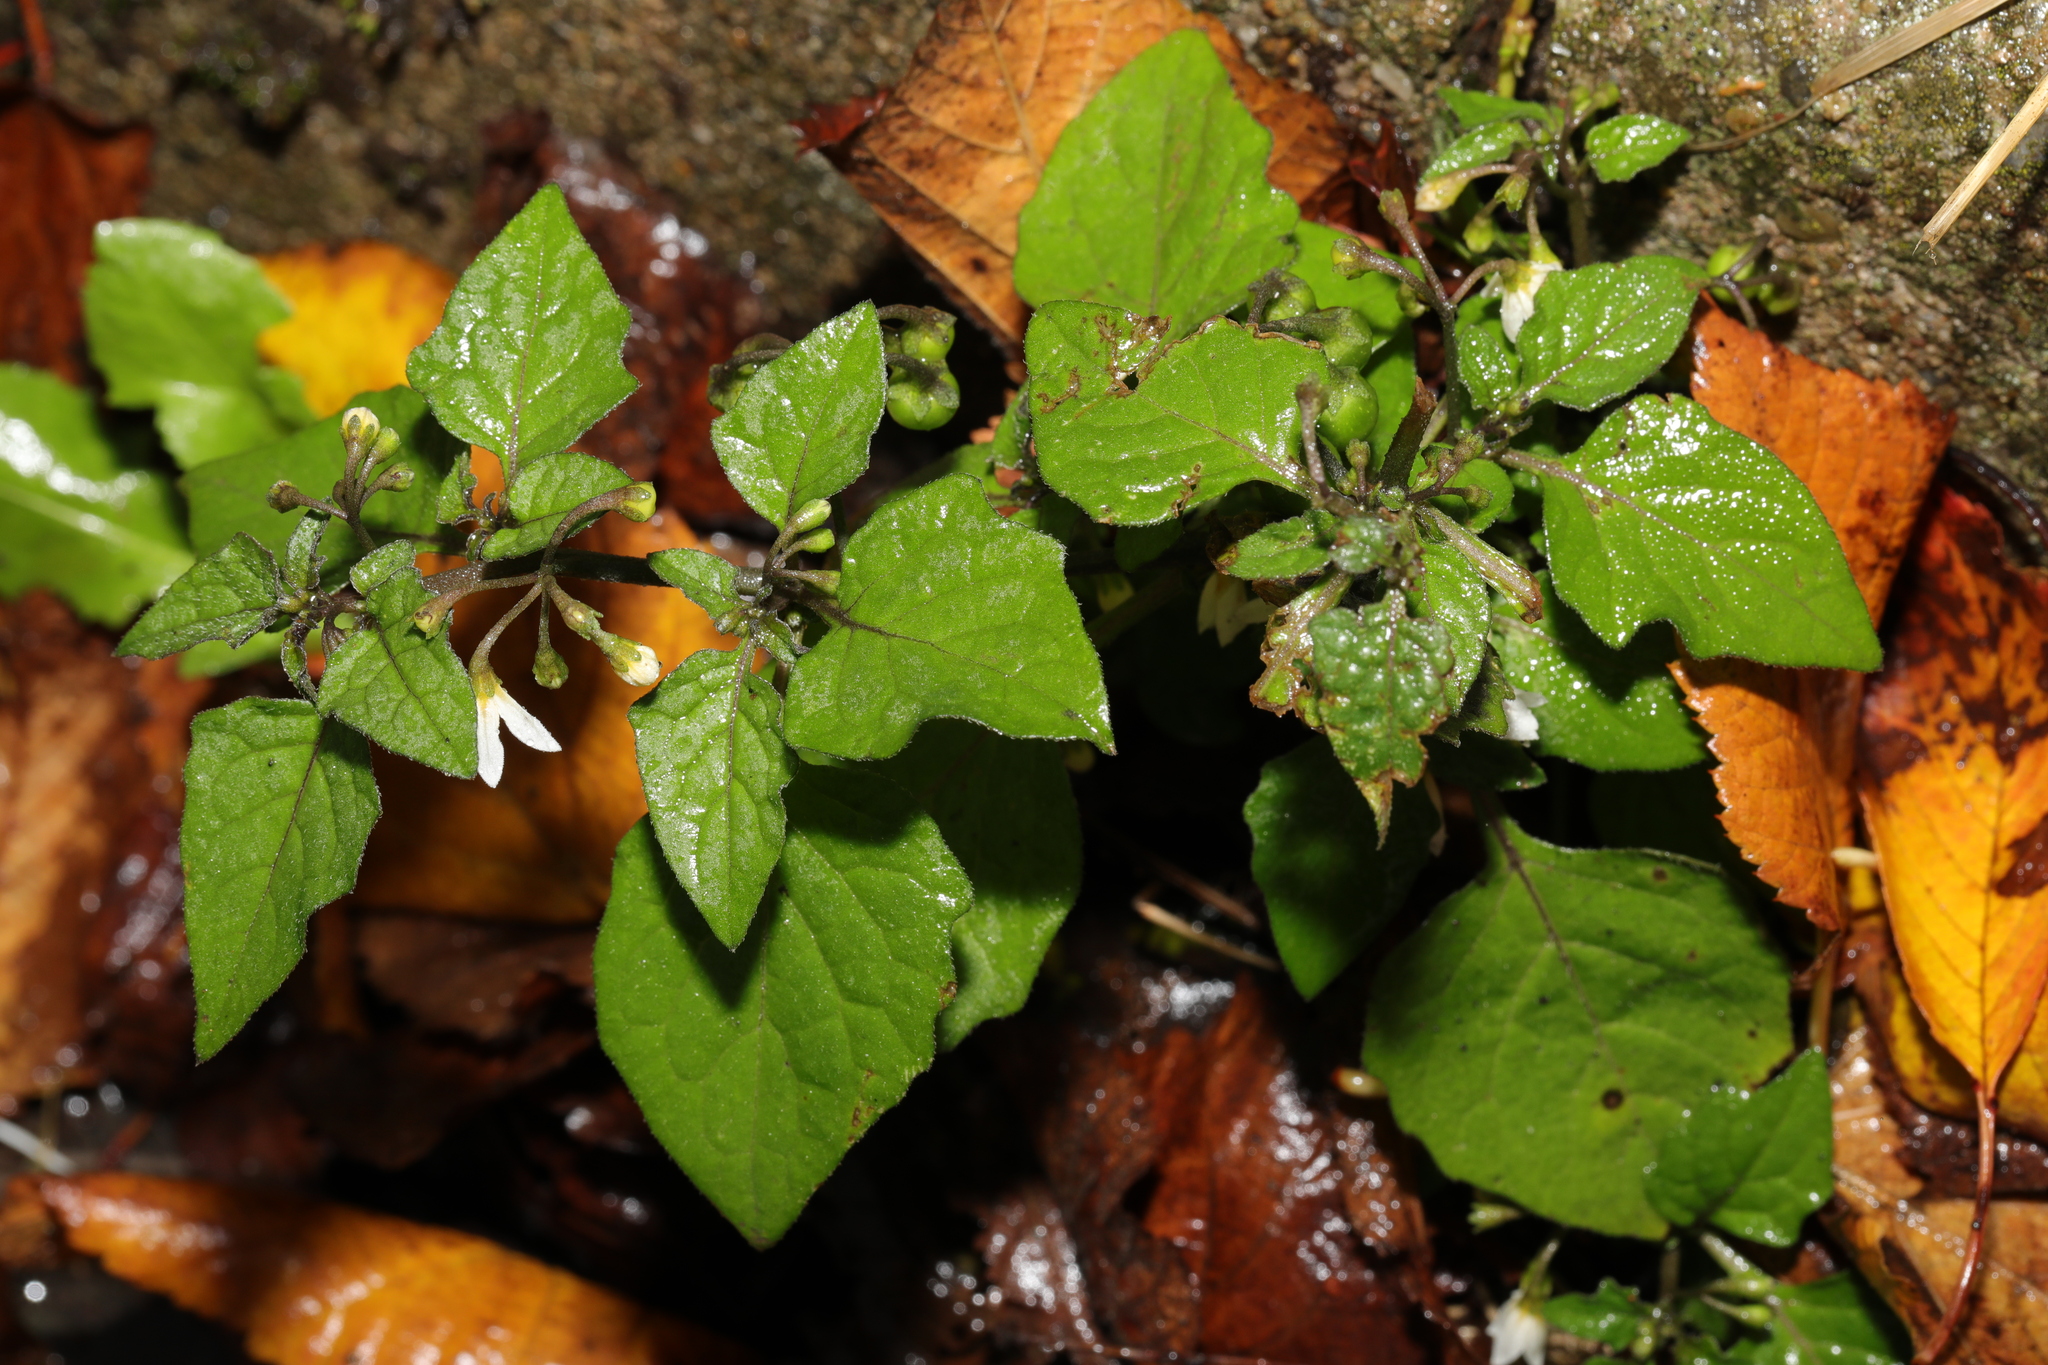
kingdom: Plantae
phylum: Tracheophyta
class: Magnoliopsida
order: Solanales
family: Solanaceae
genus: Solanum
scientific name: Solanum nigrum
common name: Black nightshade
